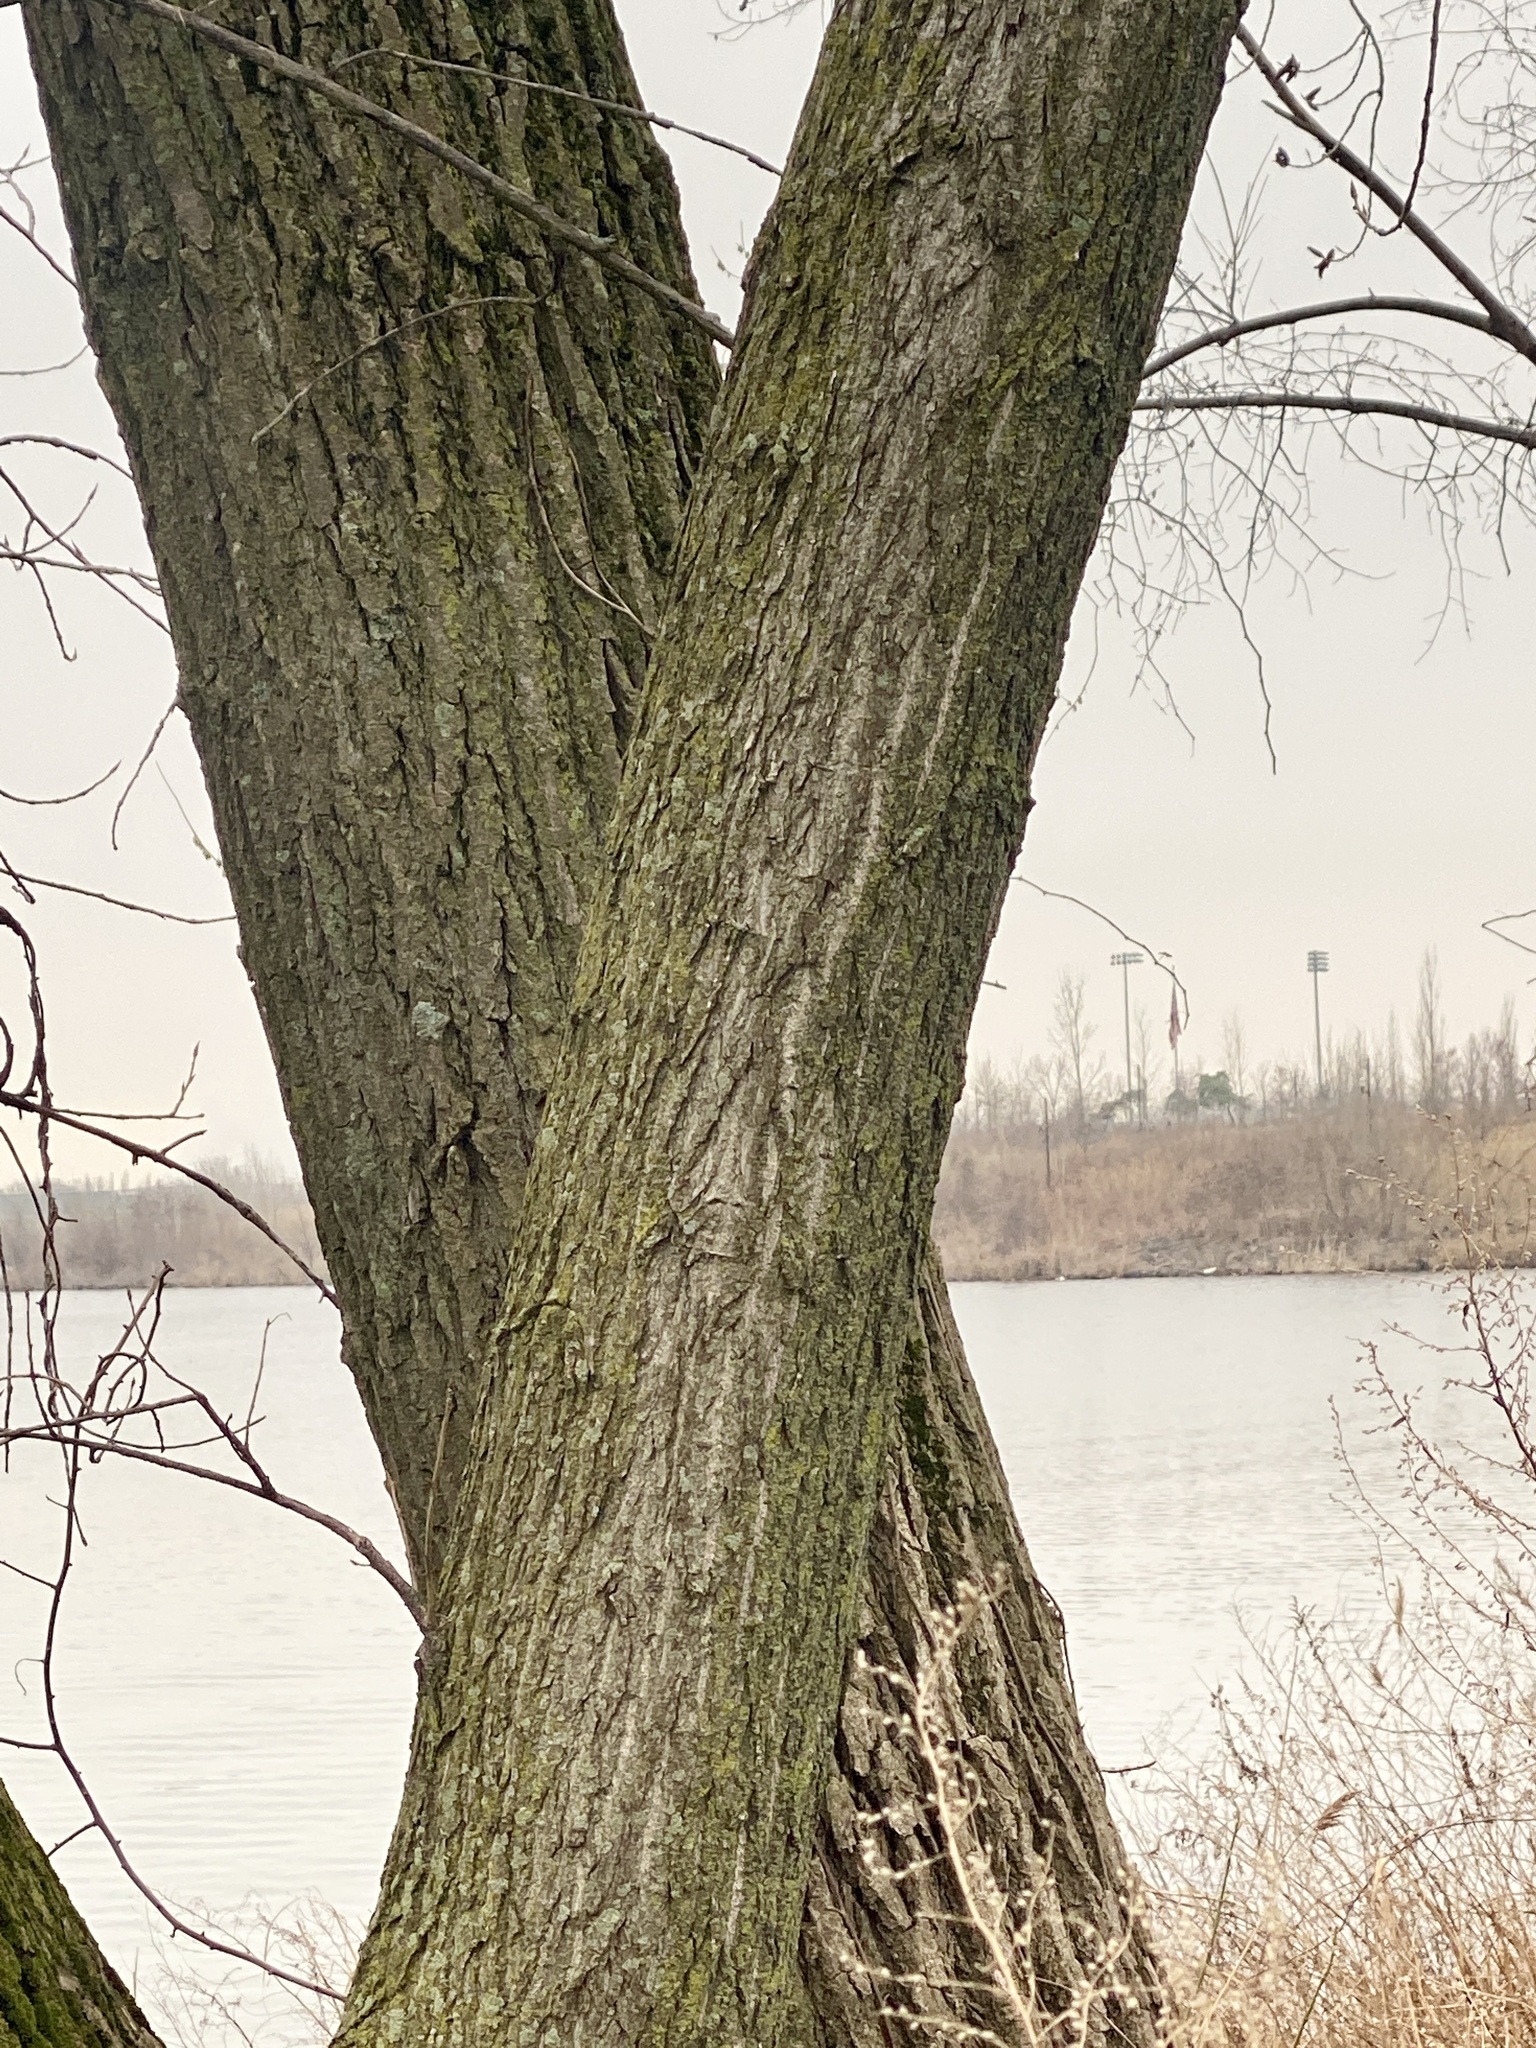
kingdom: Plantae
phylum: Tracheophyta
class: Magnoliopsida
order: Malpighiales
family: Salicaceae
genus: Populus
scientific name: Populus deltoides
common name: Eastern cottonwood
